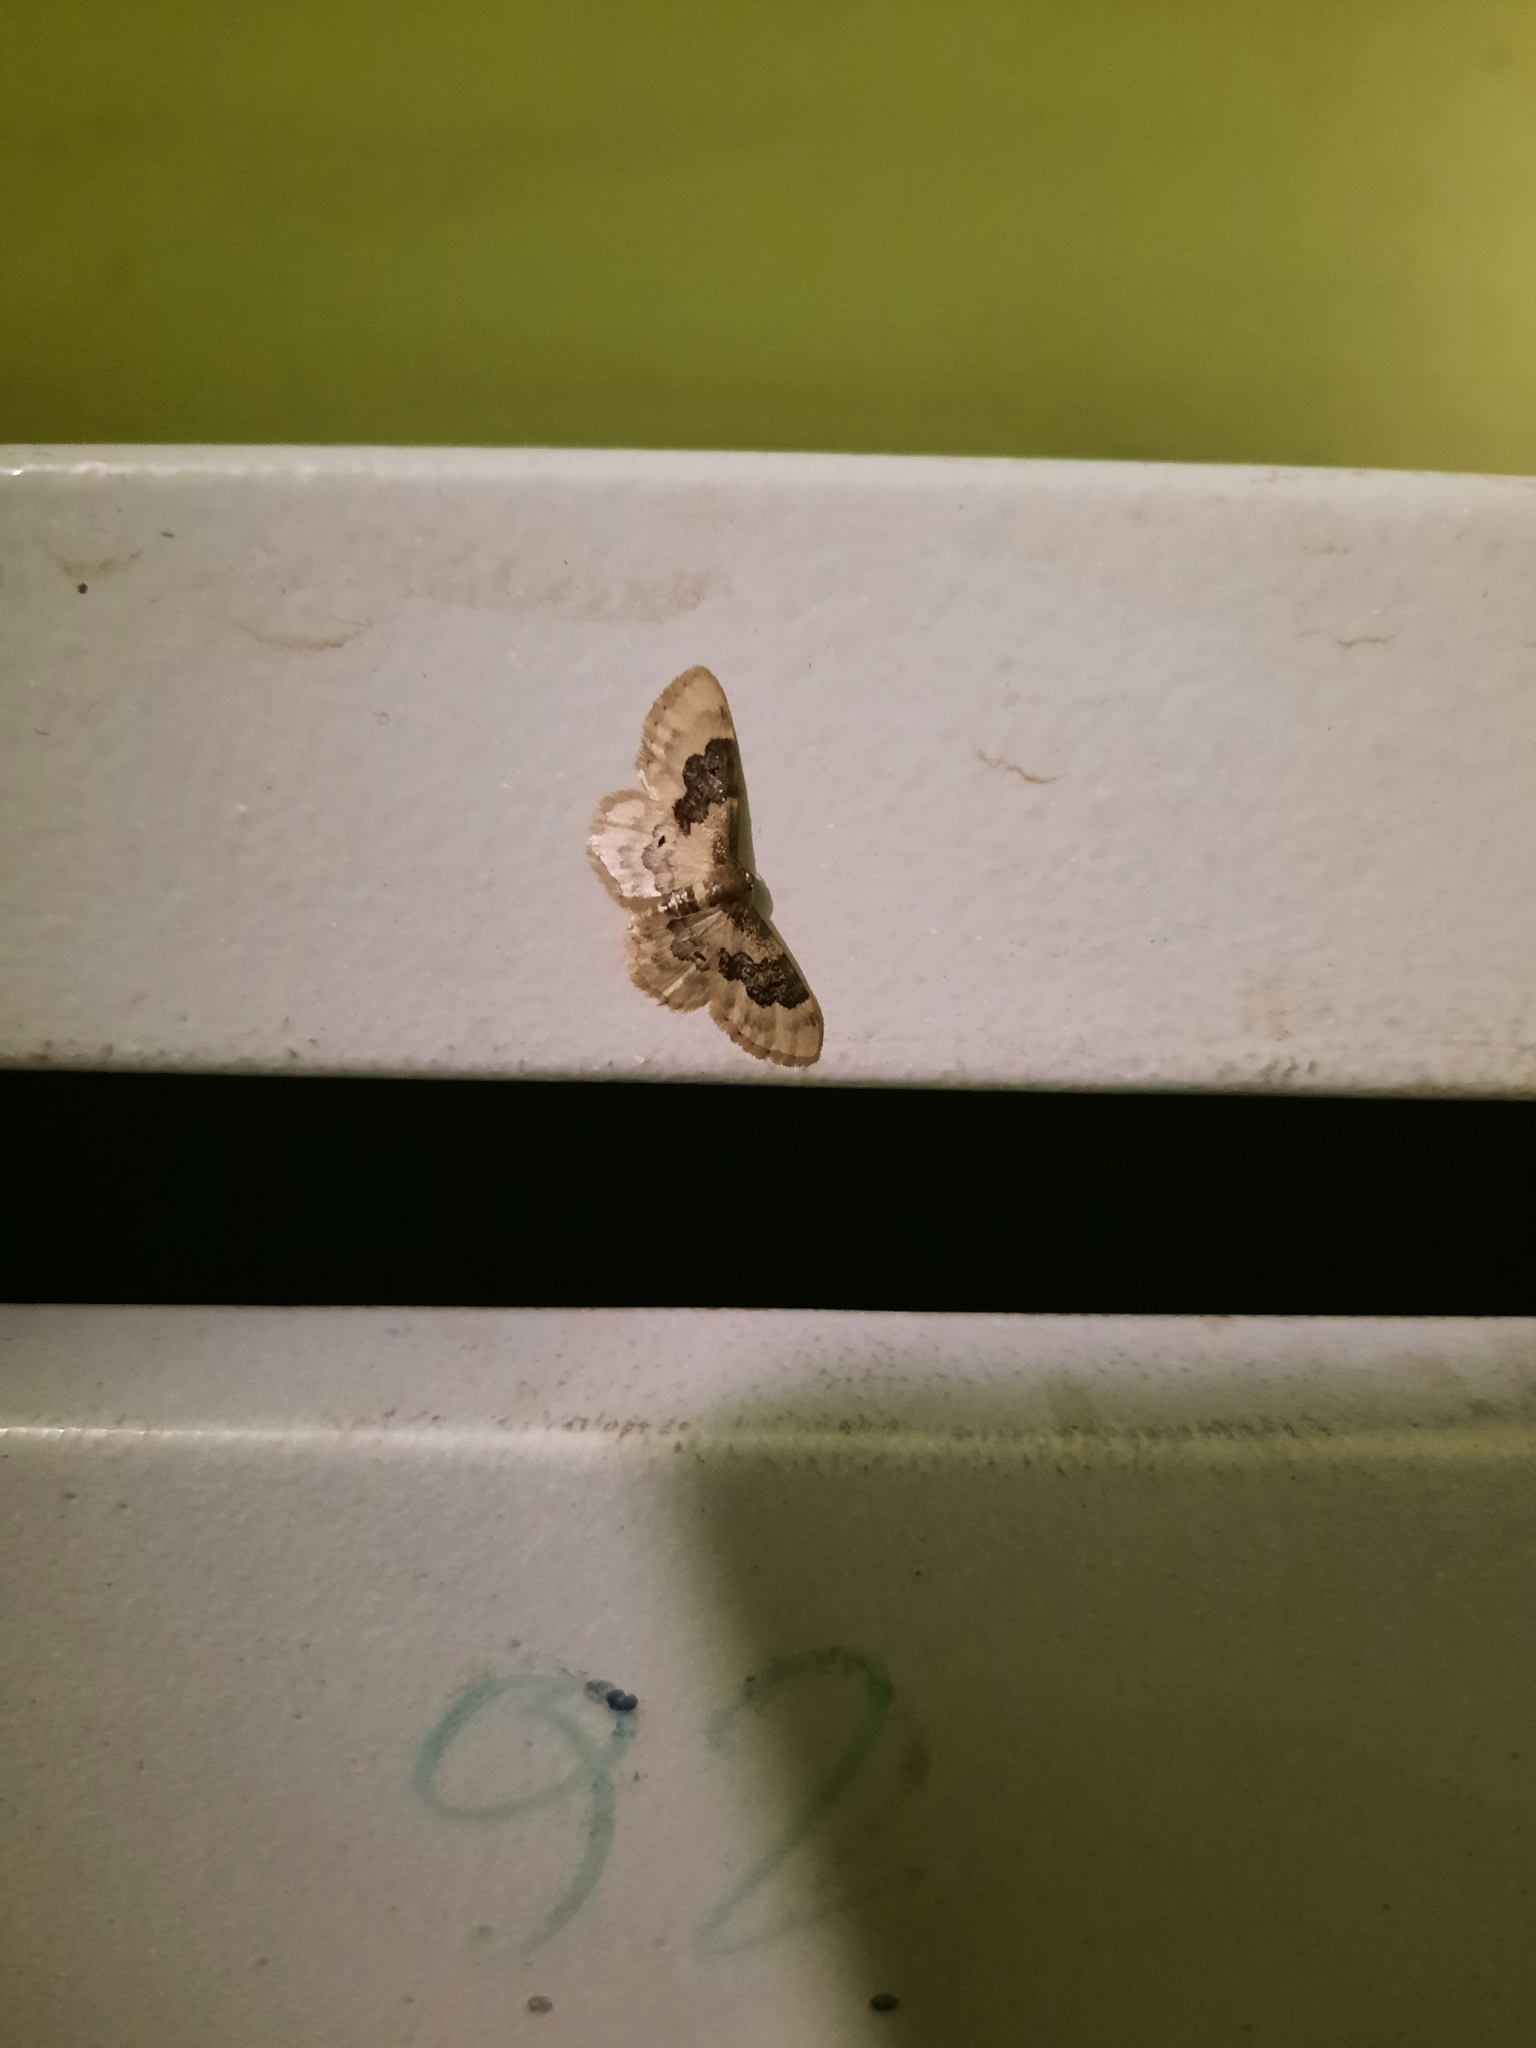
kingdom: Animalia
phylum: Arthropoda
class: Insecta
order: Lepidoptera
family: Geometridae
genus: Idaea
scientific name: Idaea rusticata
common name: Least carpet
